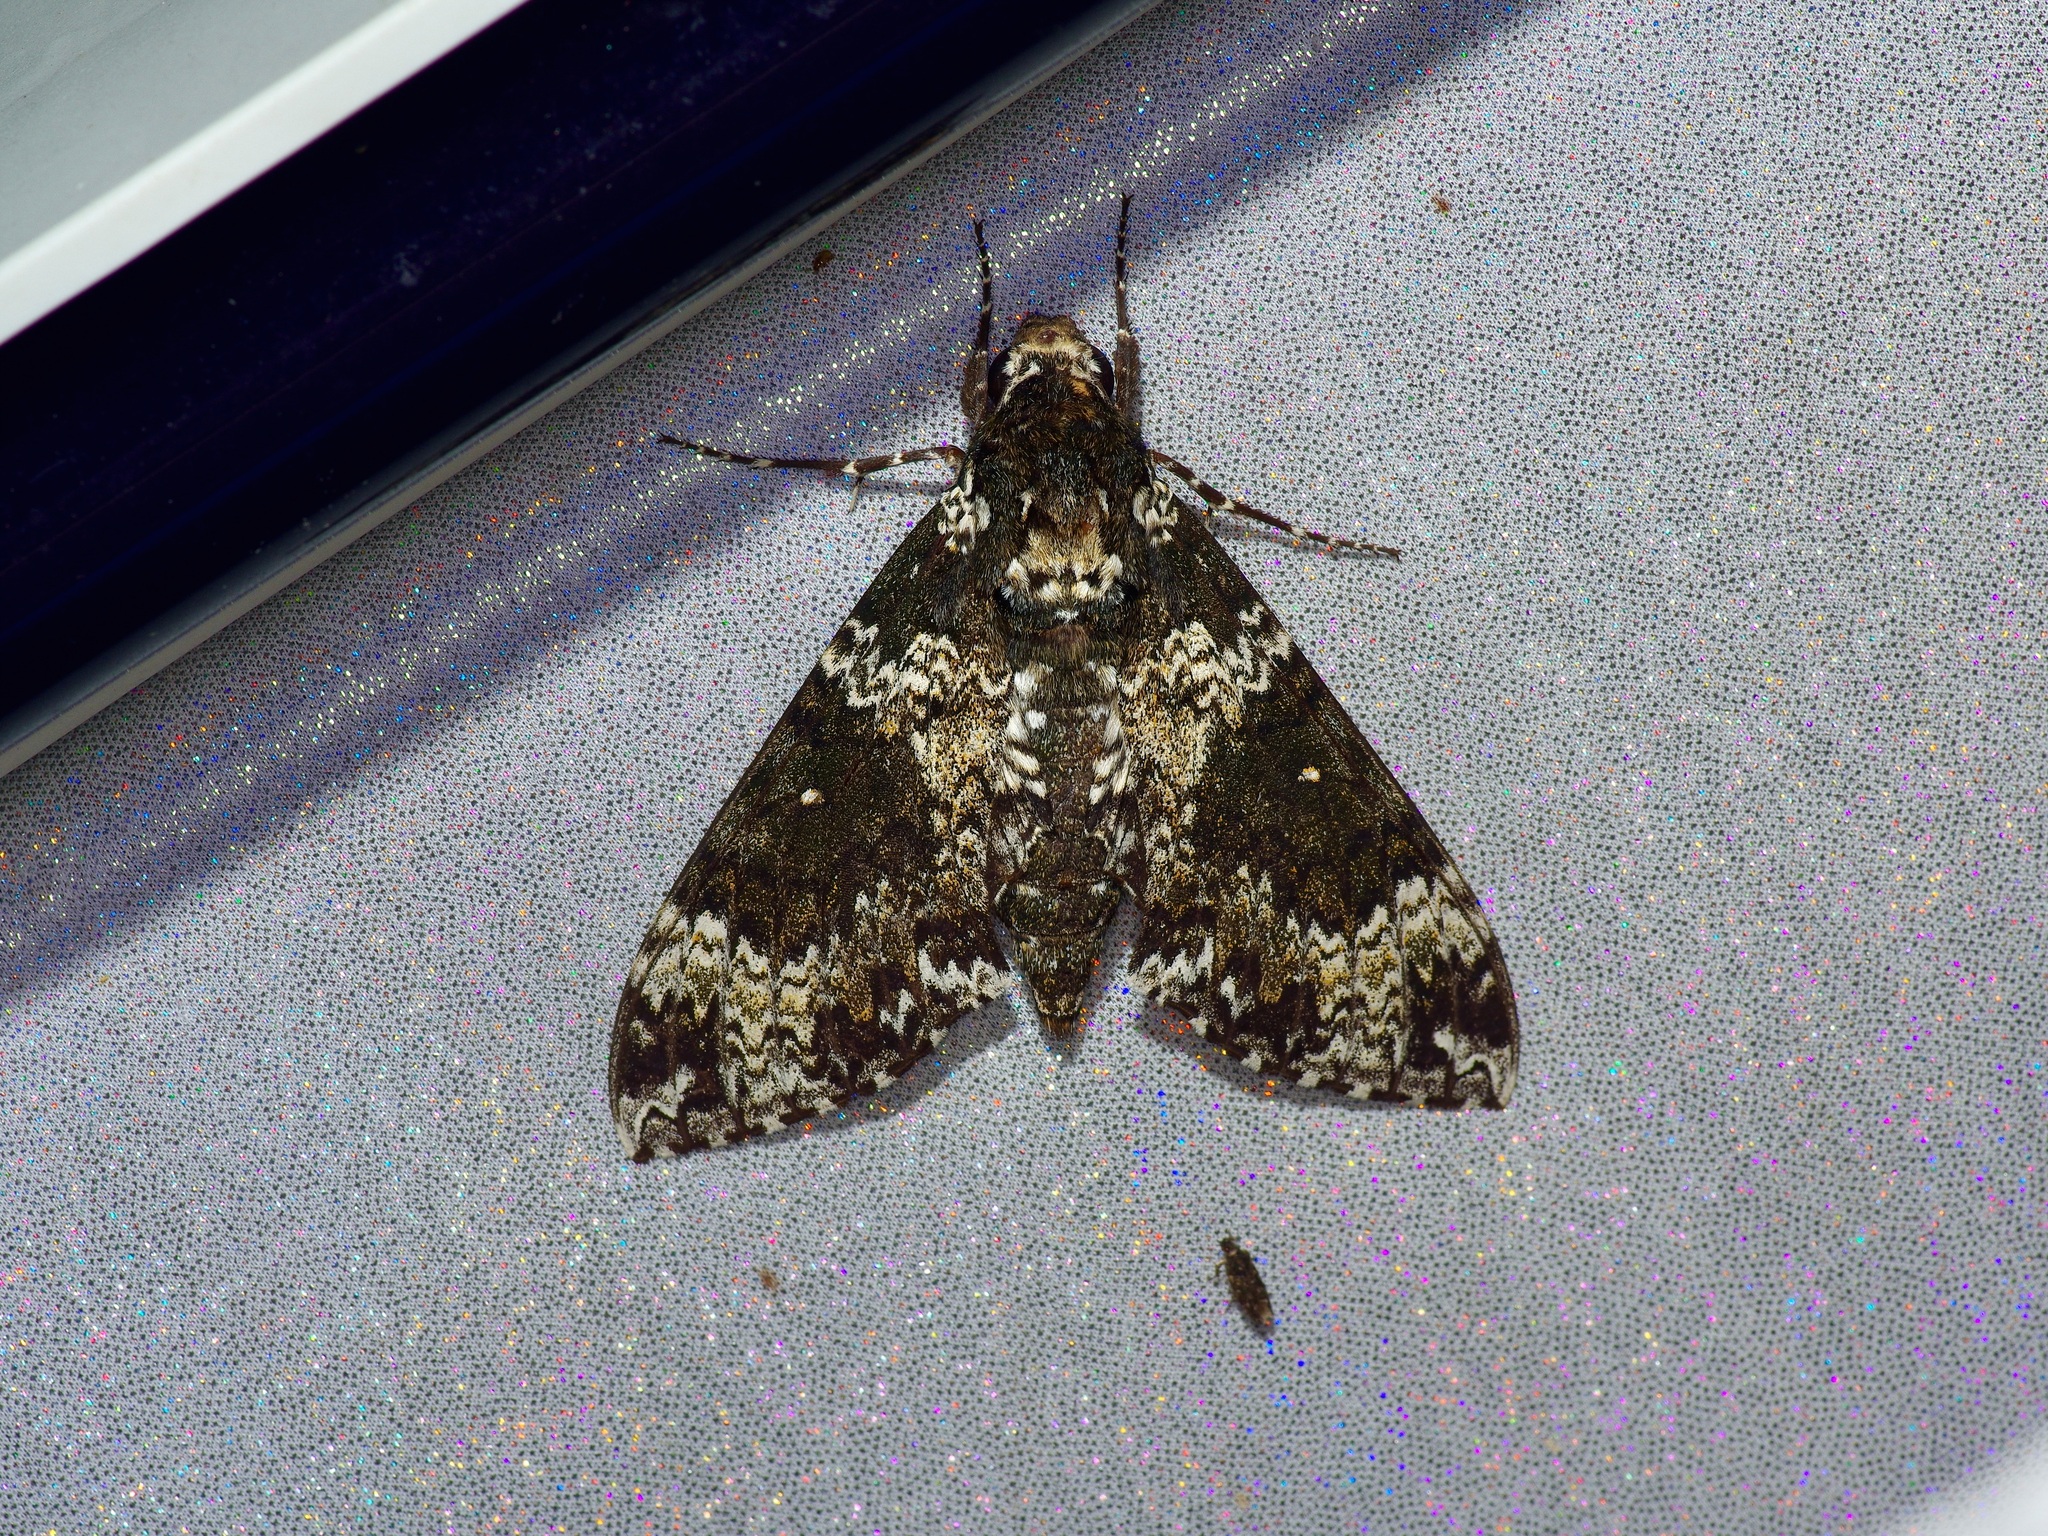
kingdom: Animalia
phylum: Arthropoda
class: Insecta
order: Lepidoptera
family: Sphingidae
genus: Manduca
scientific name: Manduca rustica
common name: Rustic sphinx
